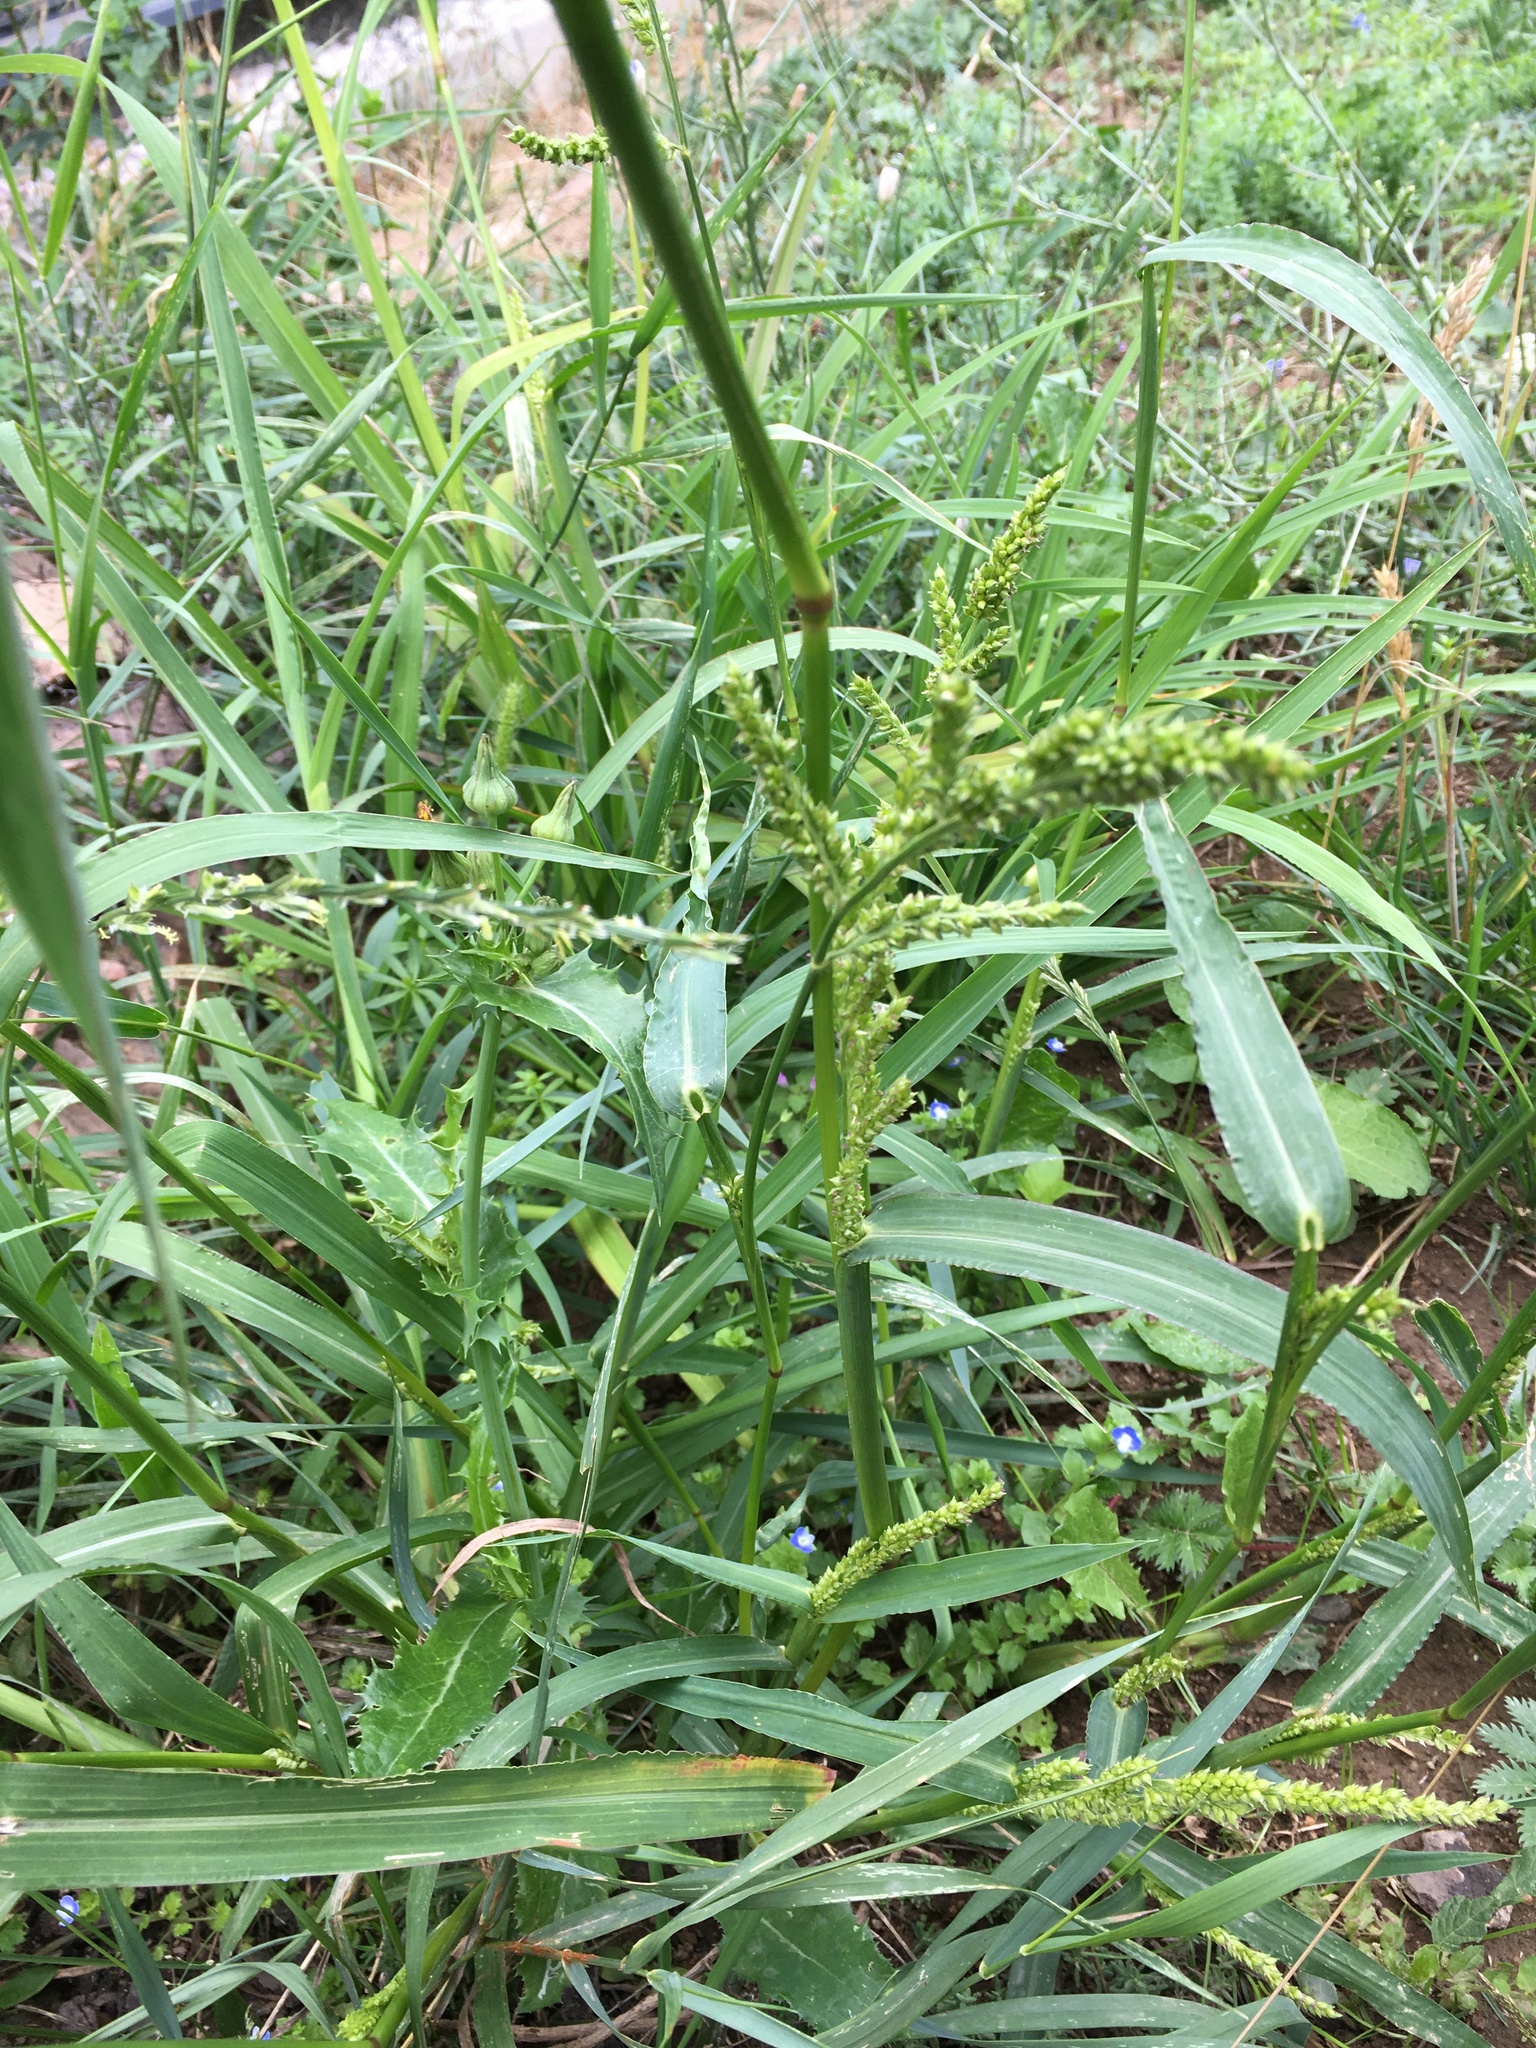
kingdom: Plantae
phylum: Tracheophyta
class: Liliopsida
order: Poales
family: Poaceae
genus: Echinochloa
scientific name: Echinochloa crus-galli
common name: Cockspur
